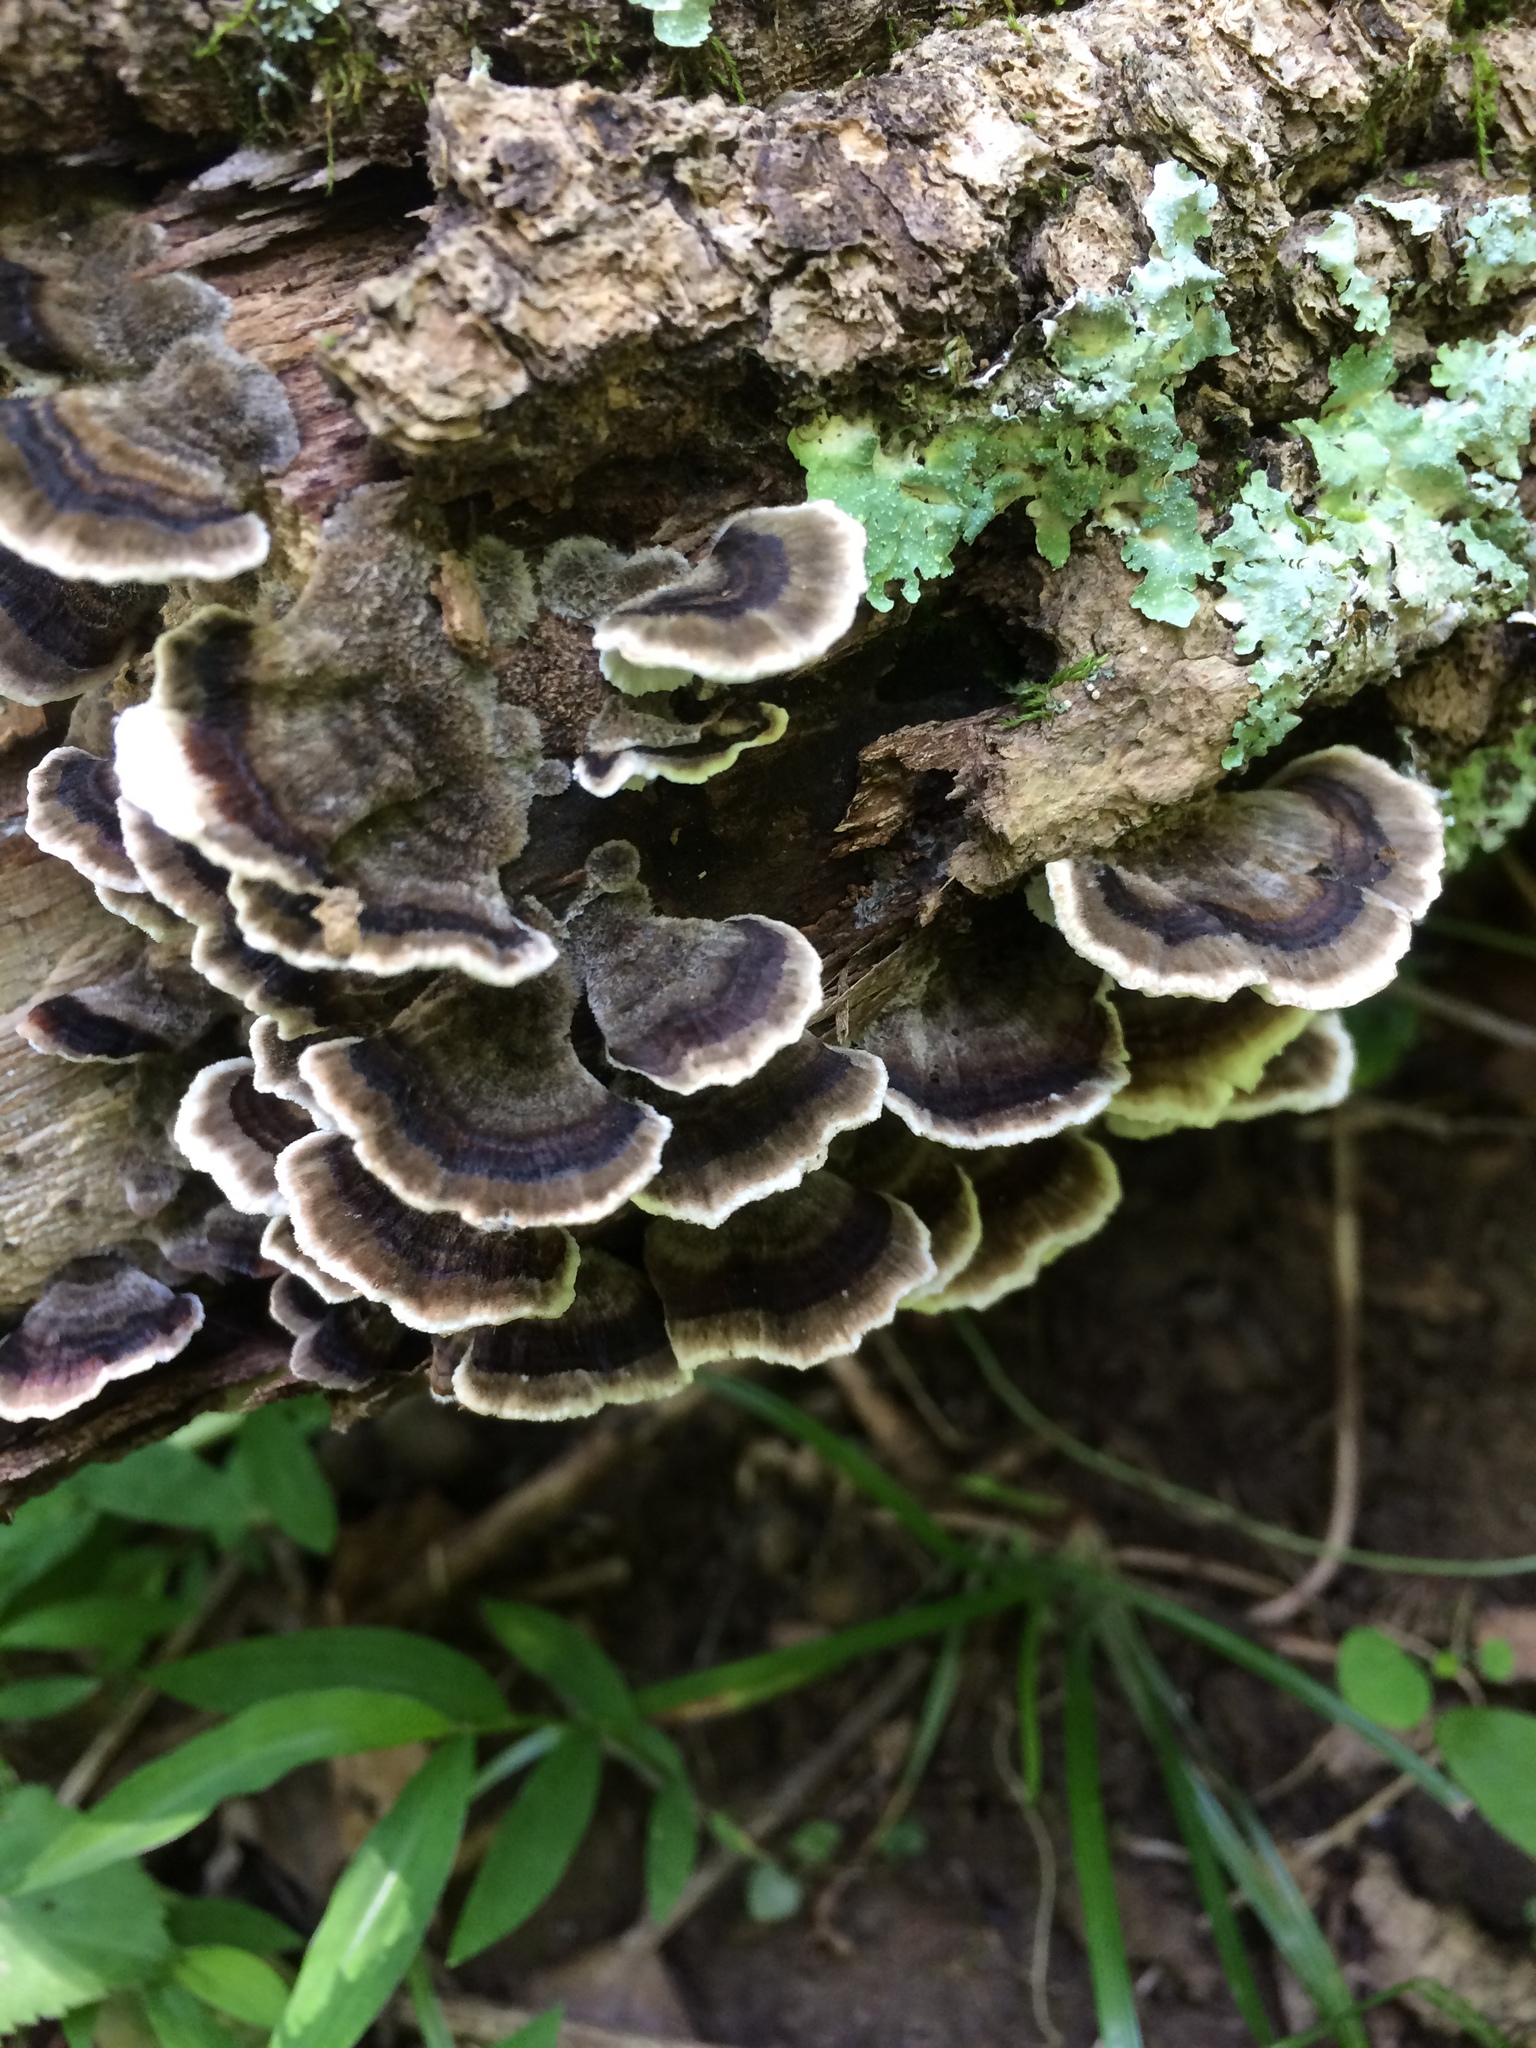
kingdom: Fungi
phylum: Basidiomycota
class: Agaricomycetes
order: Polyporales
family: Polyporaceae
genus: Trametes
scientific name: Trametes versicolor
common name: Turkeytail
